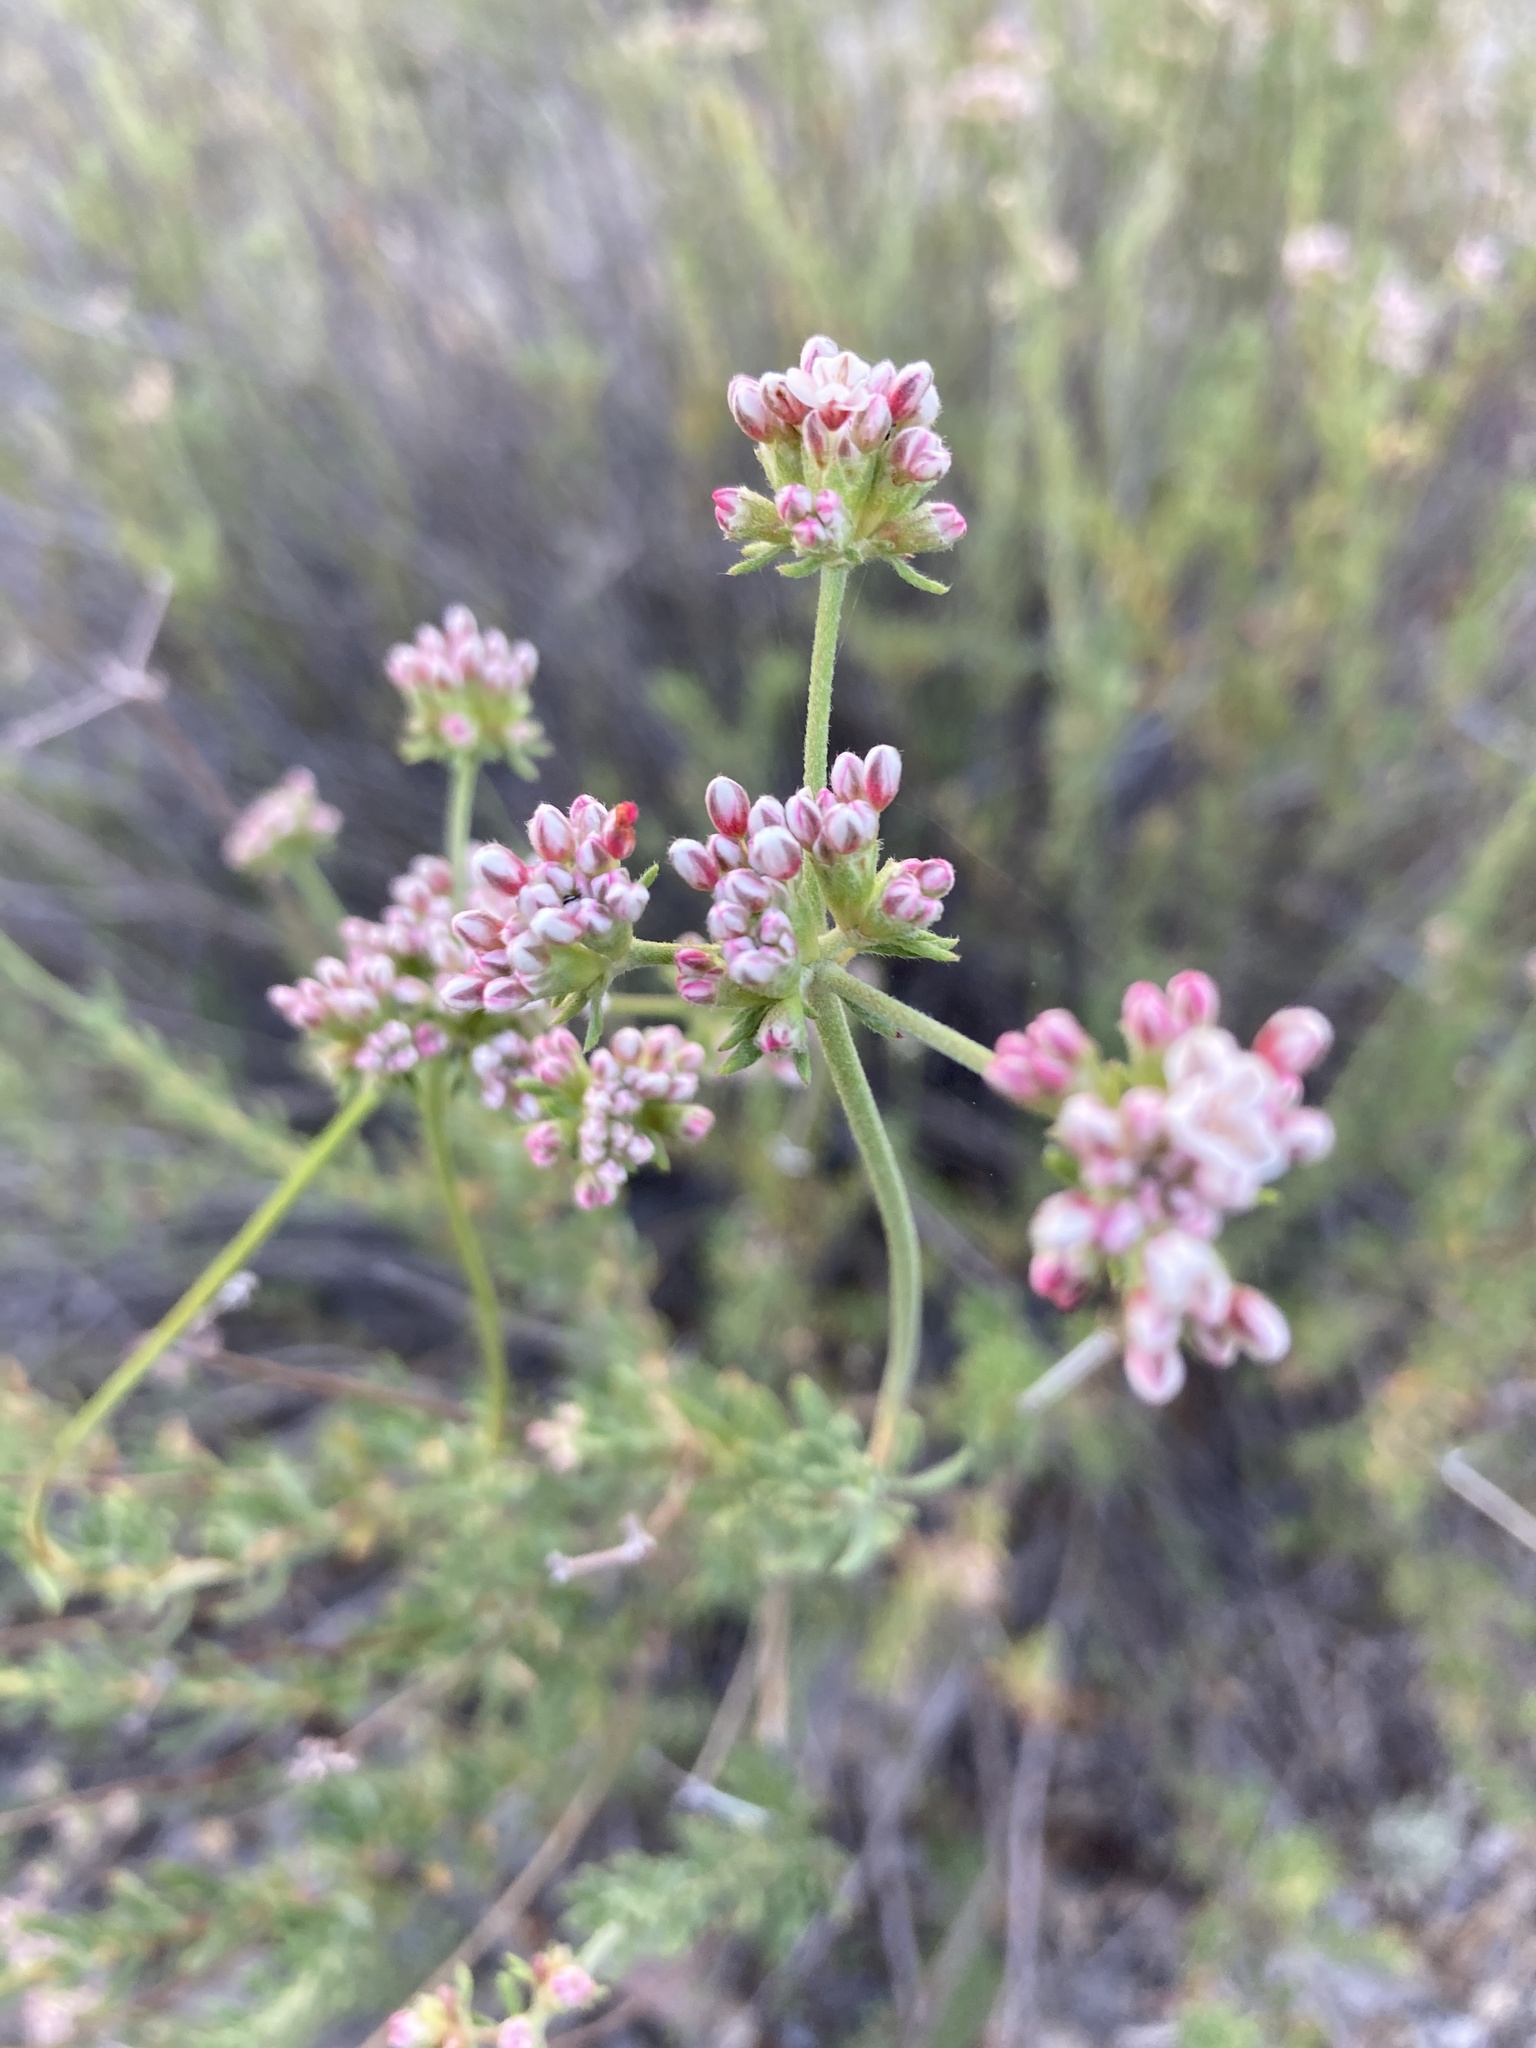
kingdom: Plantae
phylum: Tracheophyta
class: Magnoliopsida
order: Caryophyllales
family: Polygonaceae
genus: Eriogonum
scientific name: Eriogonum fasciculatum
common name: California wild buckwheat
